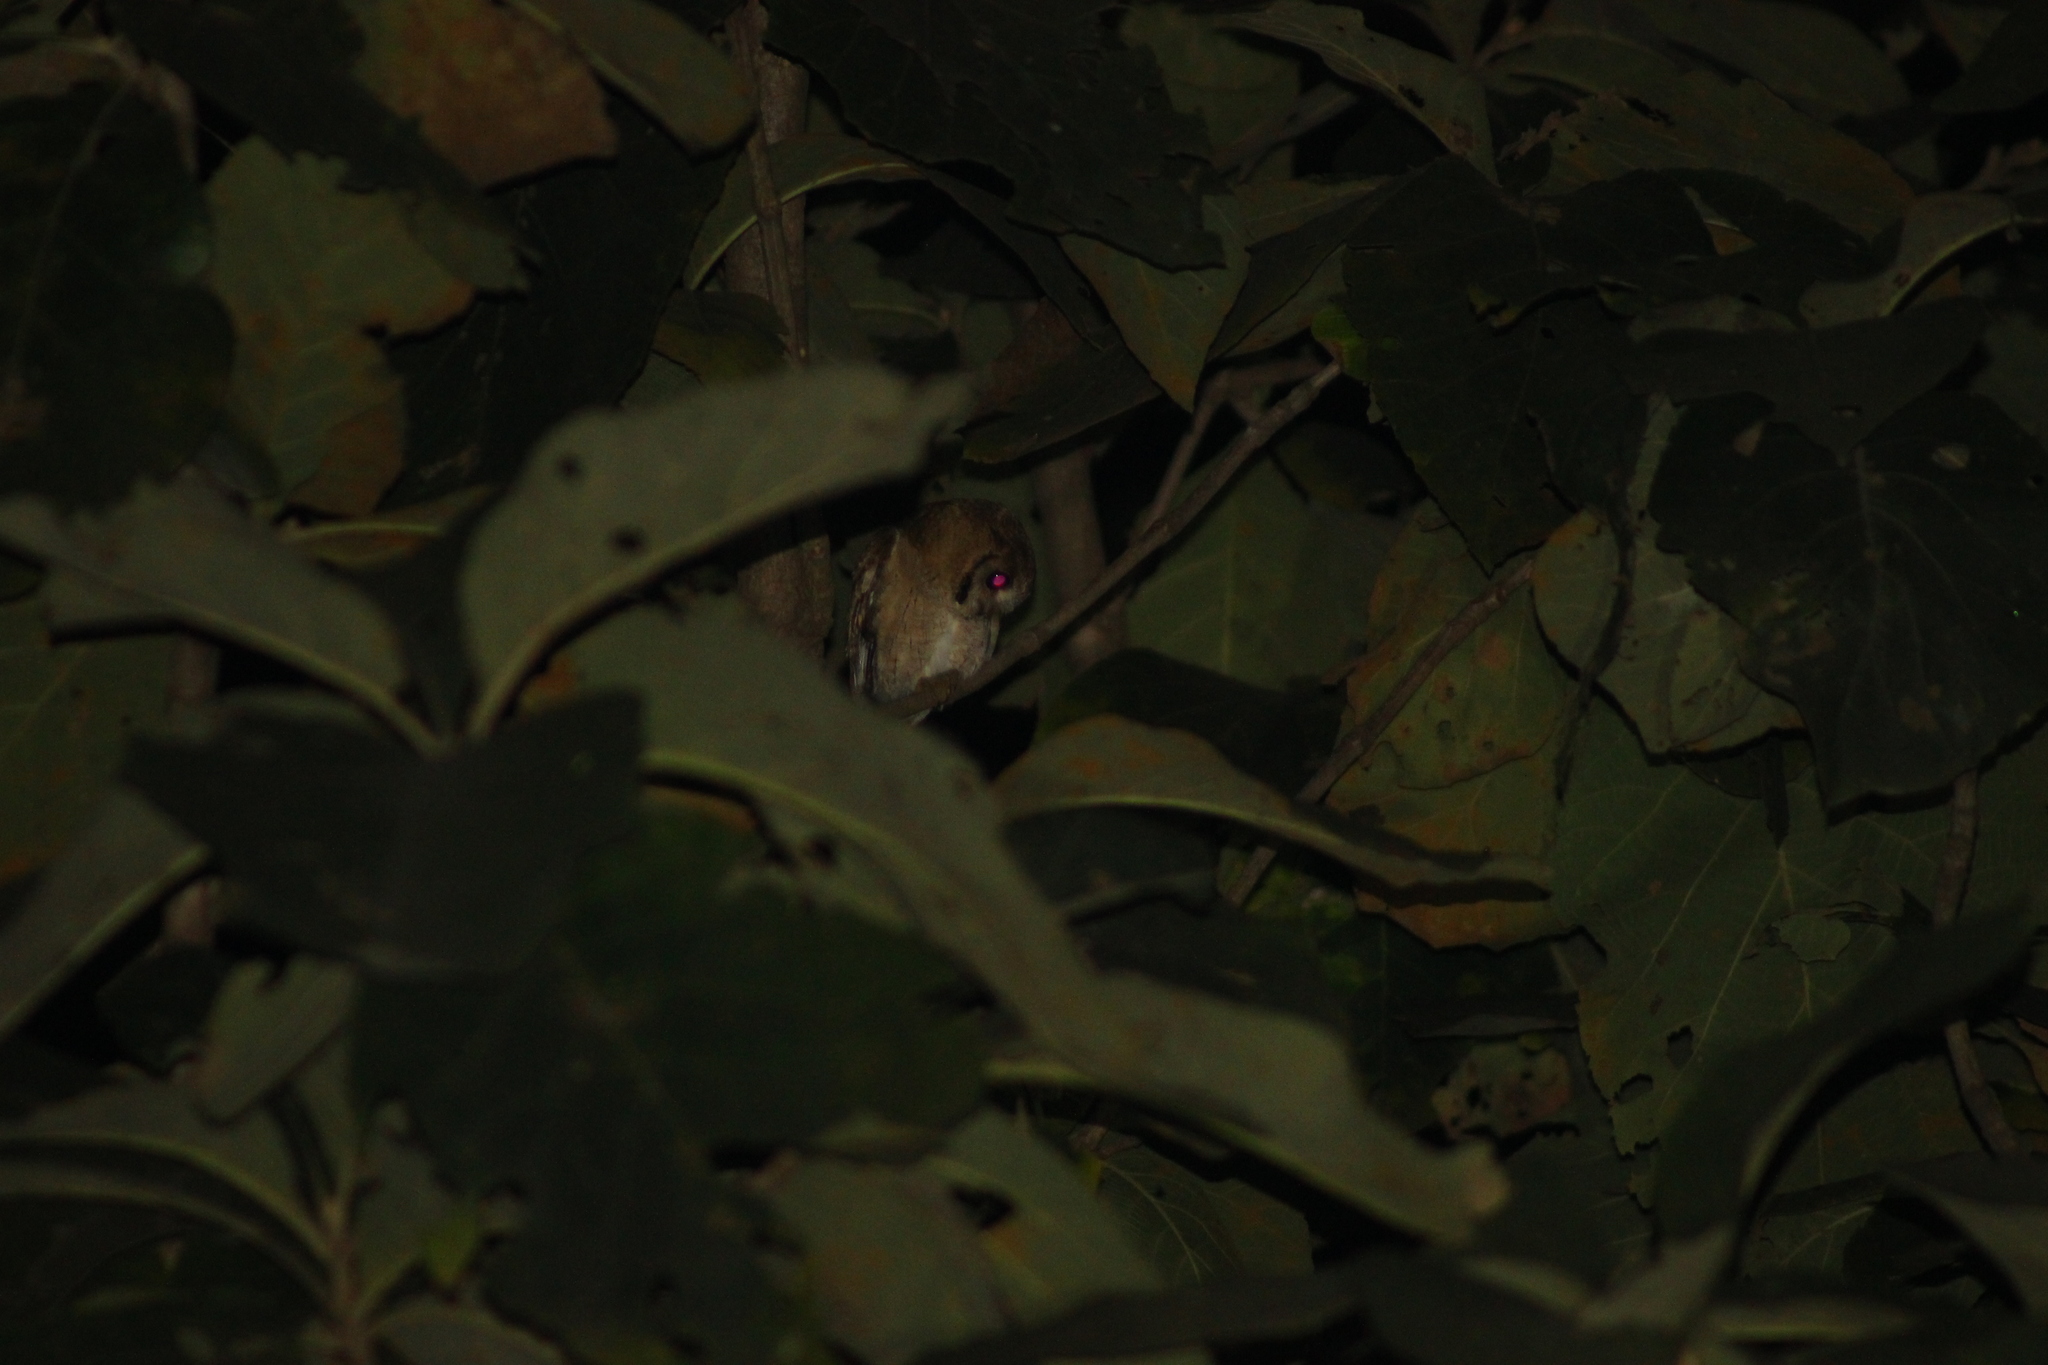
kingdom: Animalia
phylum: Chordata
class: Aves
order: Strigiformes
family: Strigidae
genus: Otus
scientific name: Otus bakkamoena
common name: Indian scops owl
